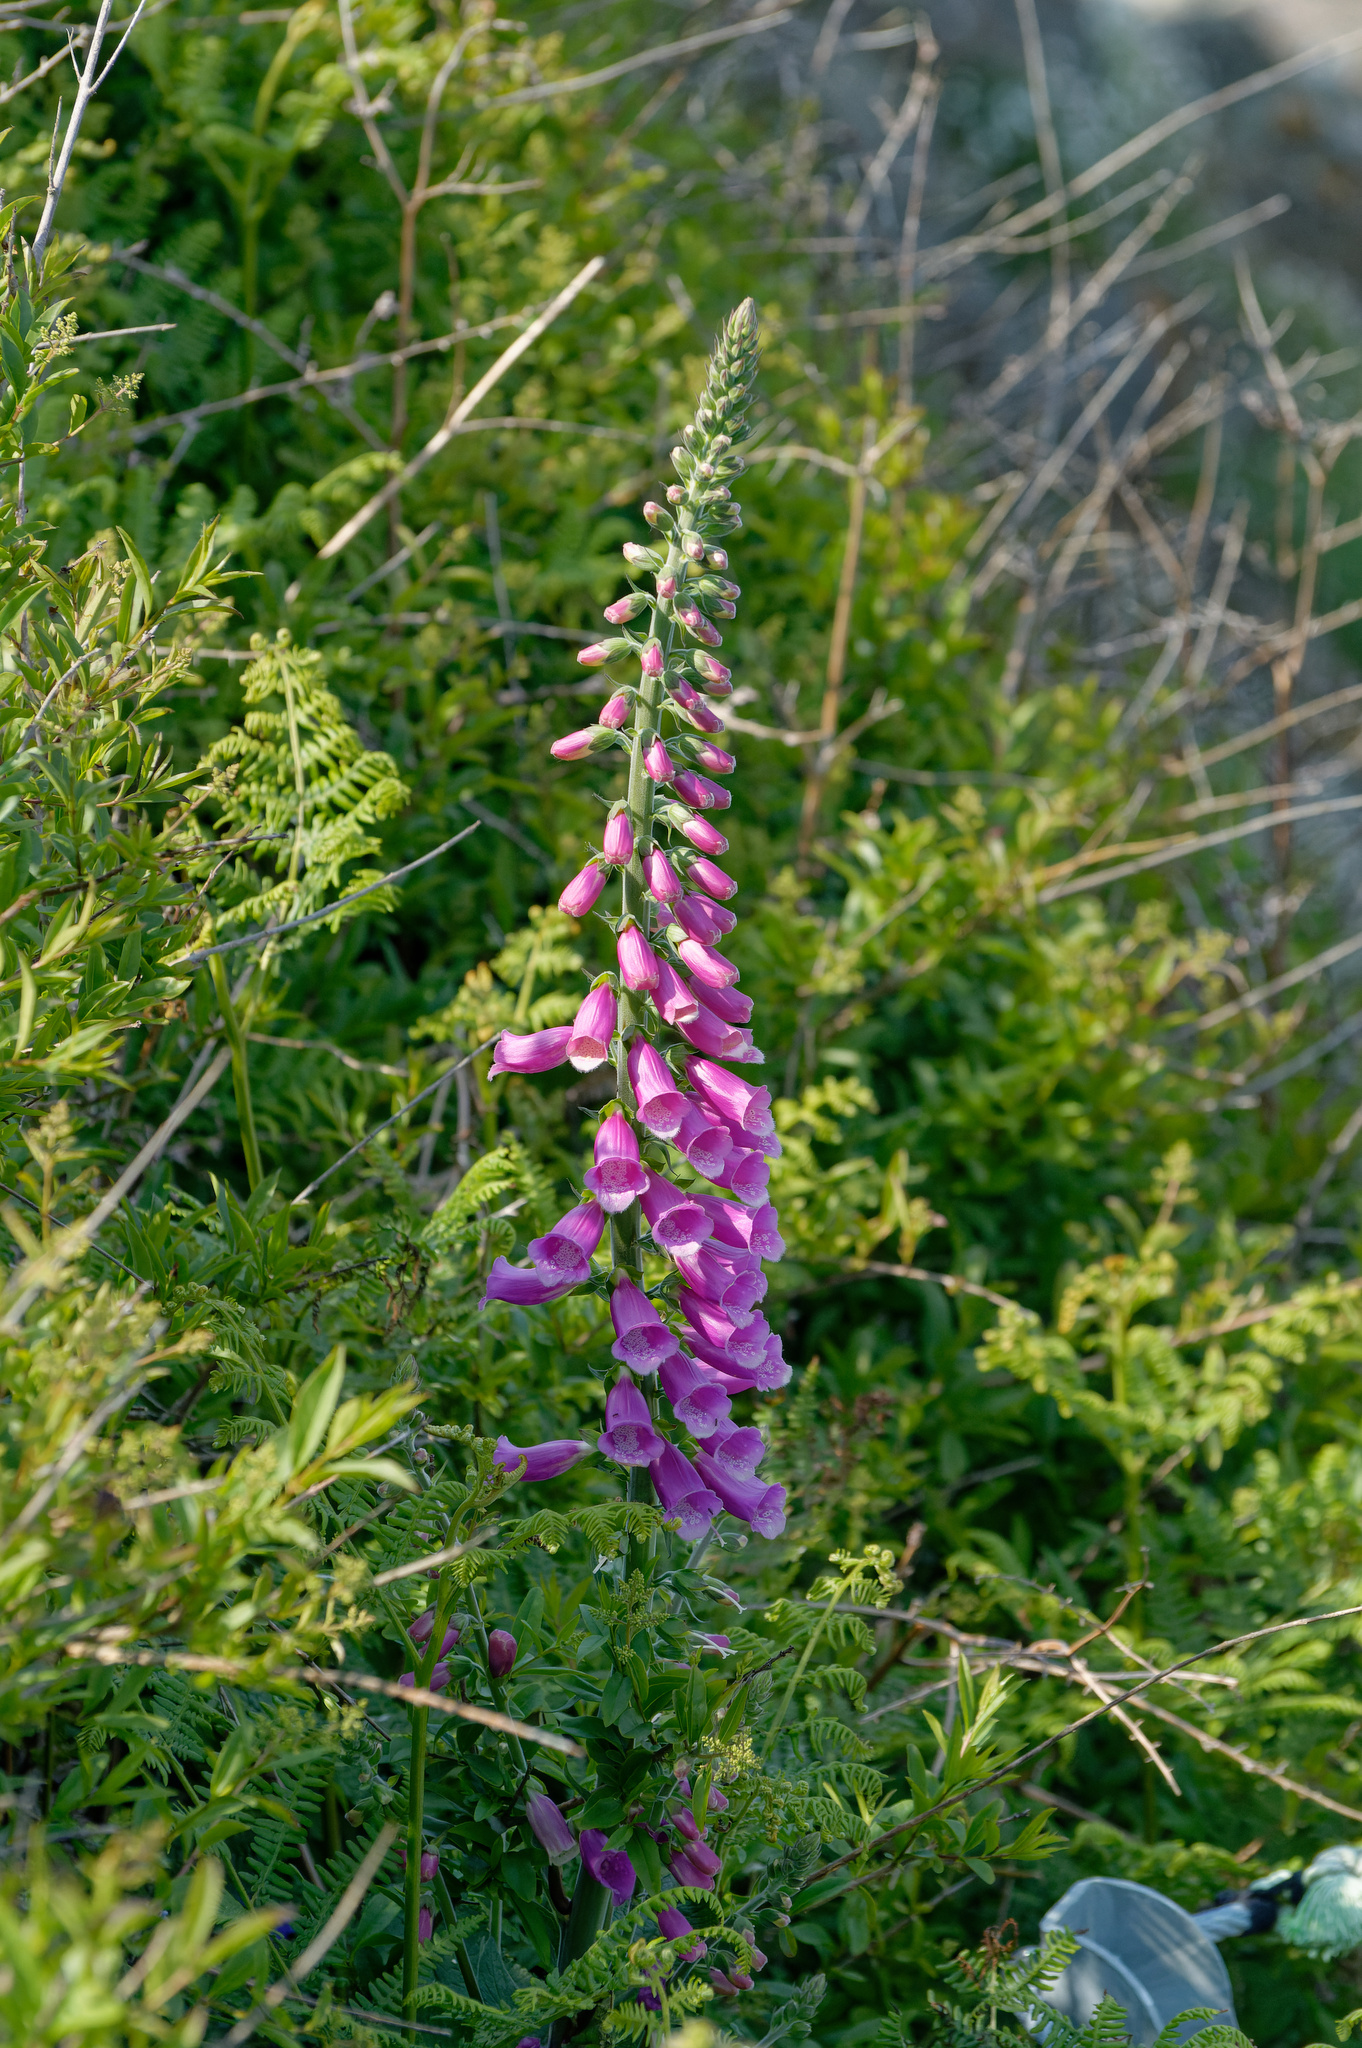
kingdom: Plantae
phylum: Tracheophyta
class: Magnoliopsida
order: Lamiales
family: Plantaginaceae
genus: Digitalis
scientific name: Digitalis purpurea
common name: Foxglove
